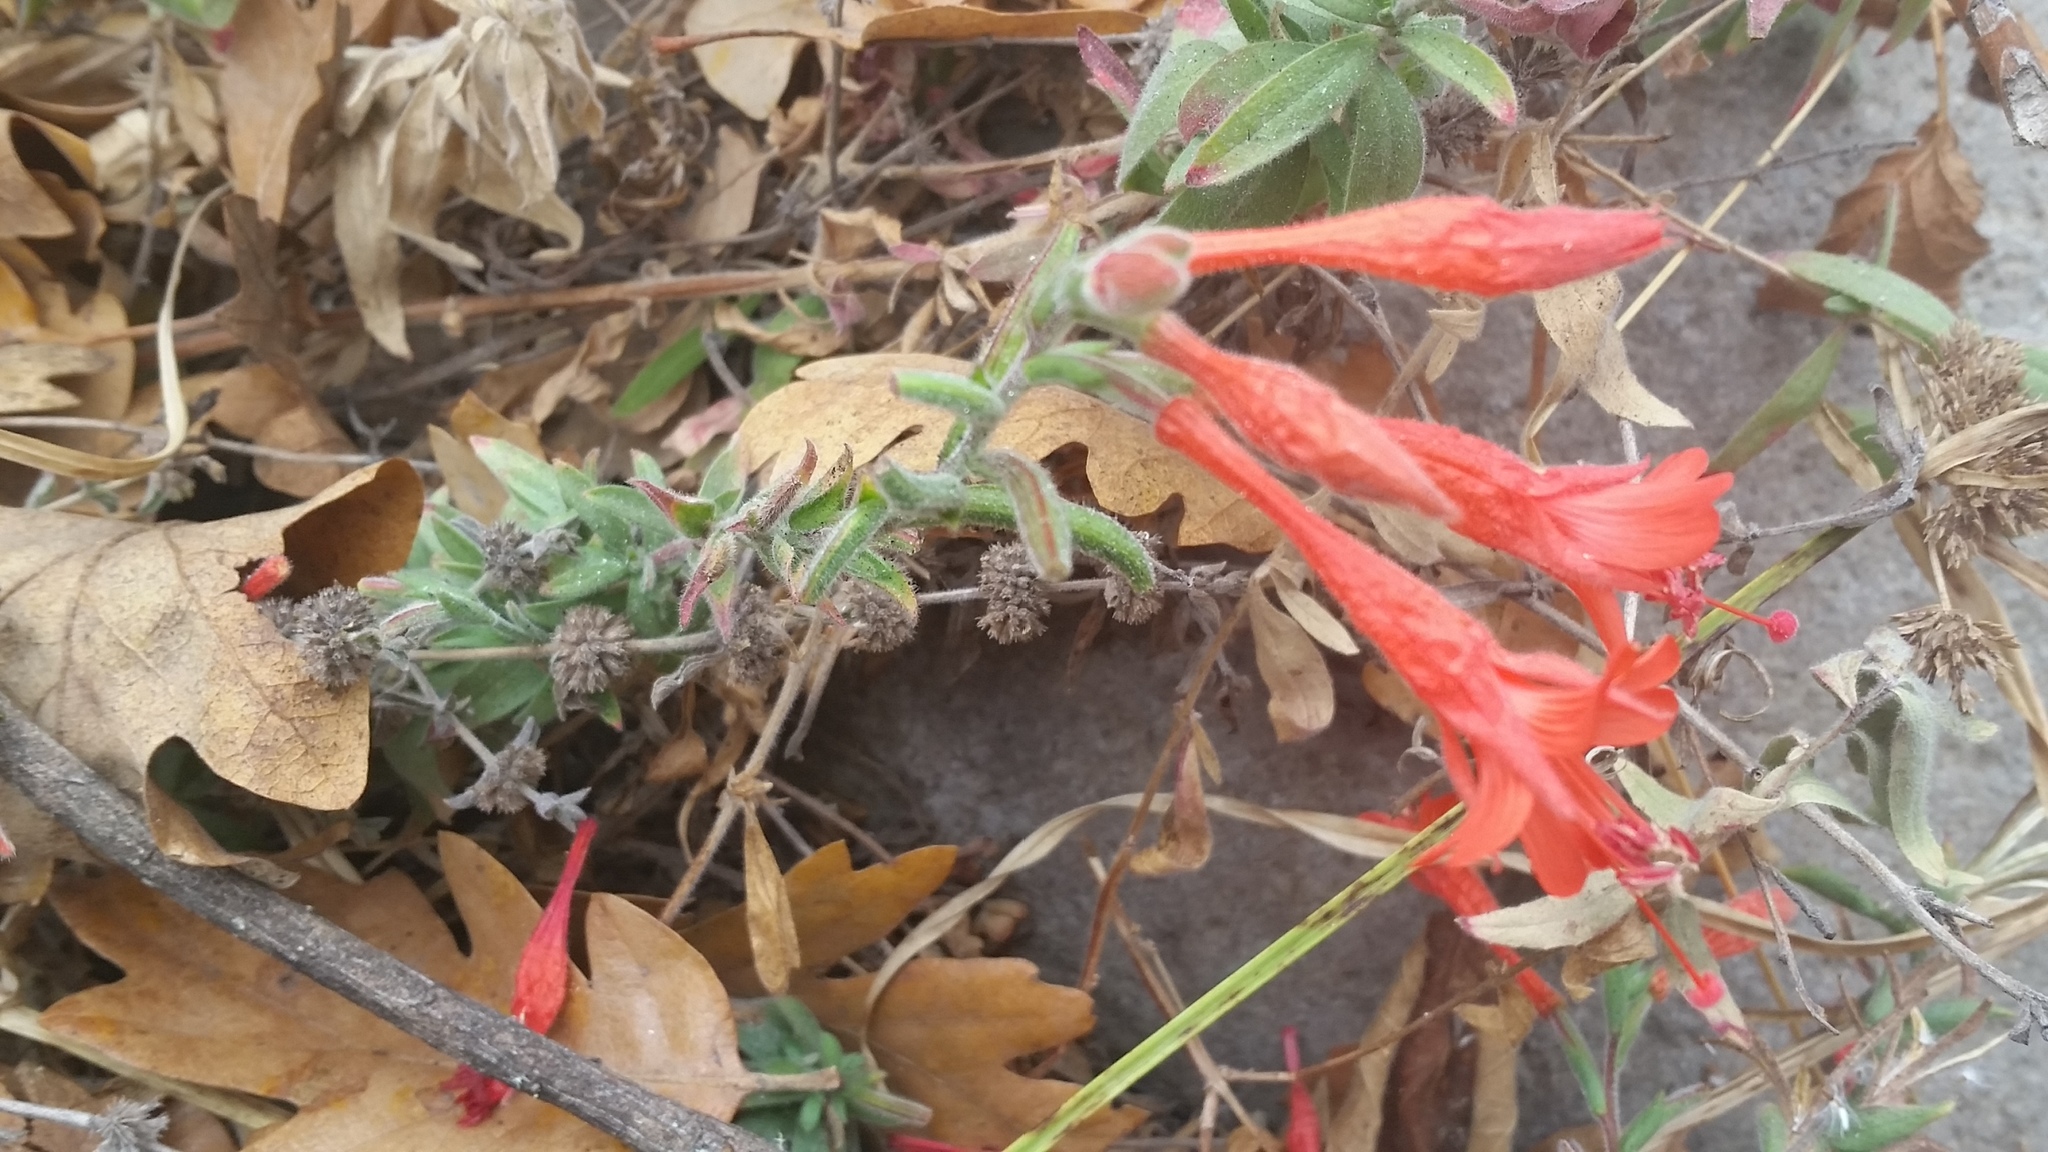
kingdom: Plantae
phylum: Tracheophyta
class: Magnoliopsida
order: Myrtales
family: Onagraceae
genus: Epilobium
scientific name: Epilobium canum
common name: California-fuchsia
